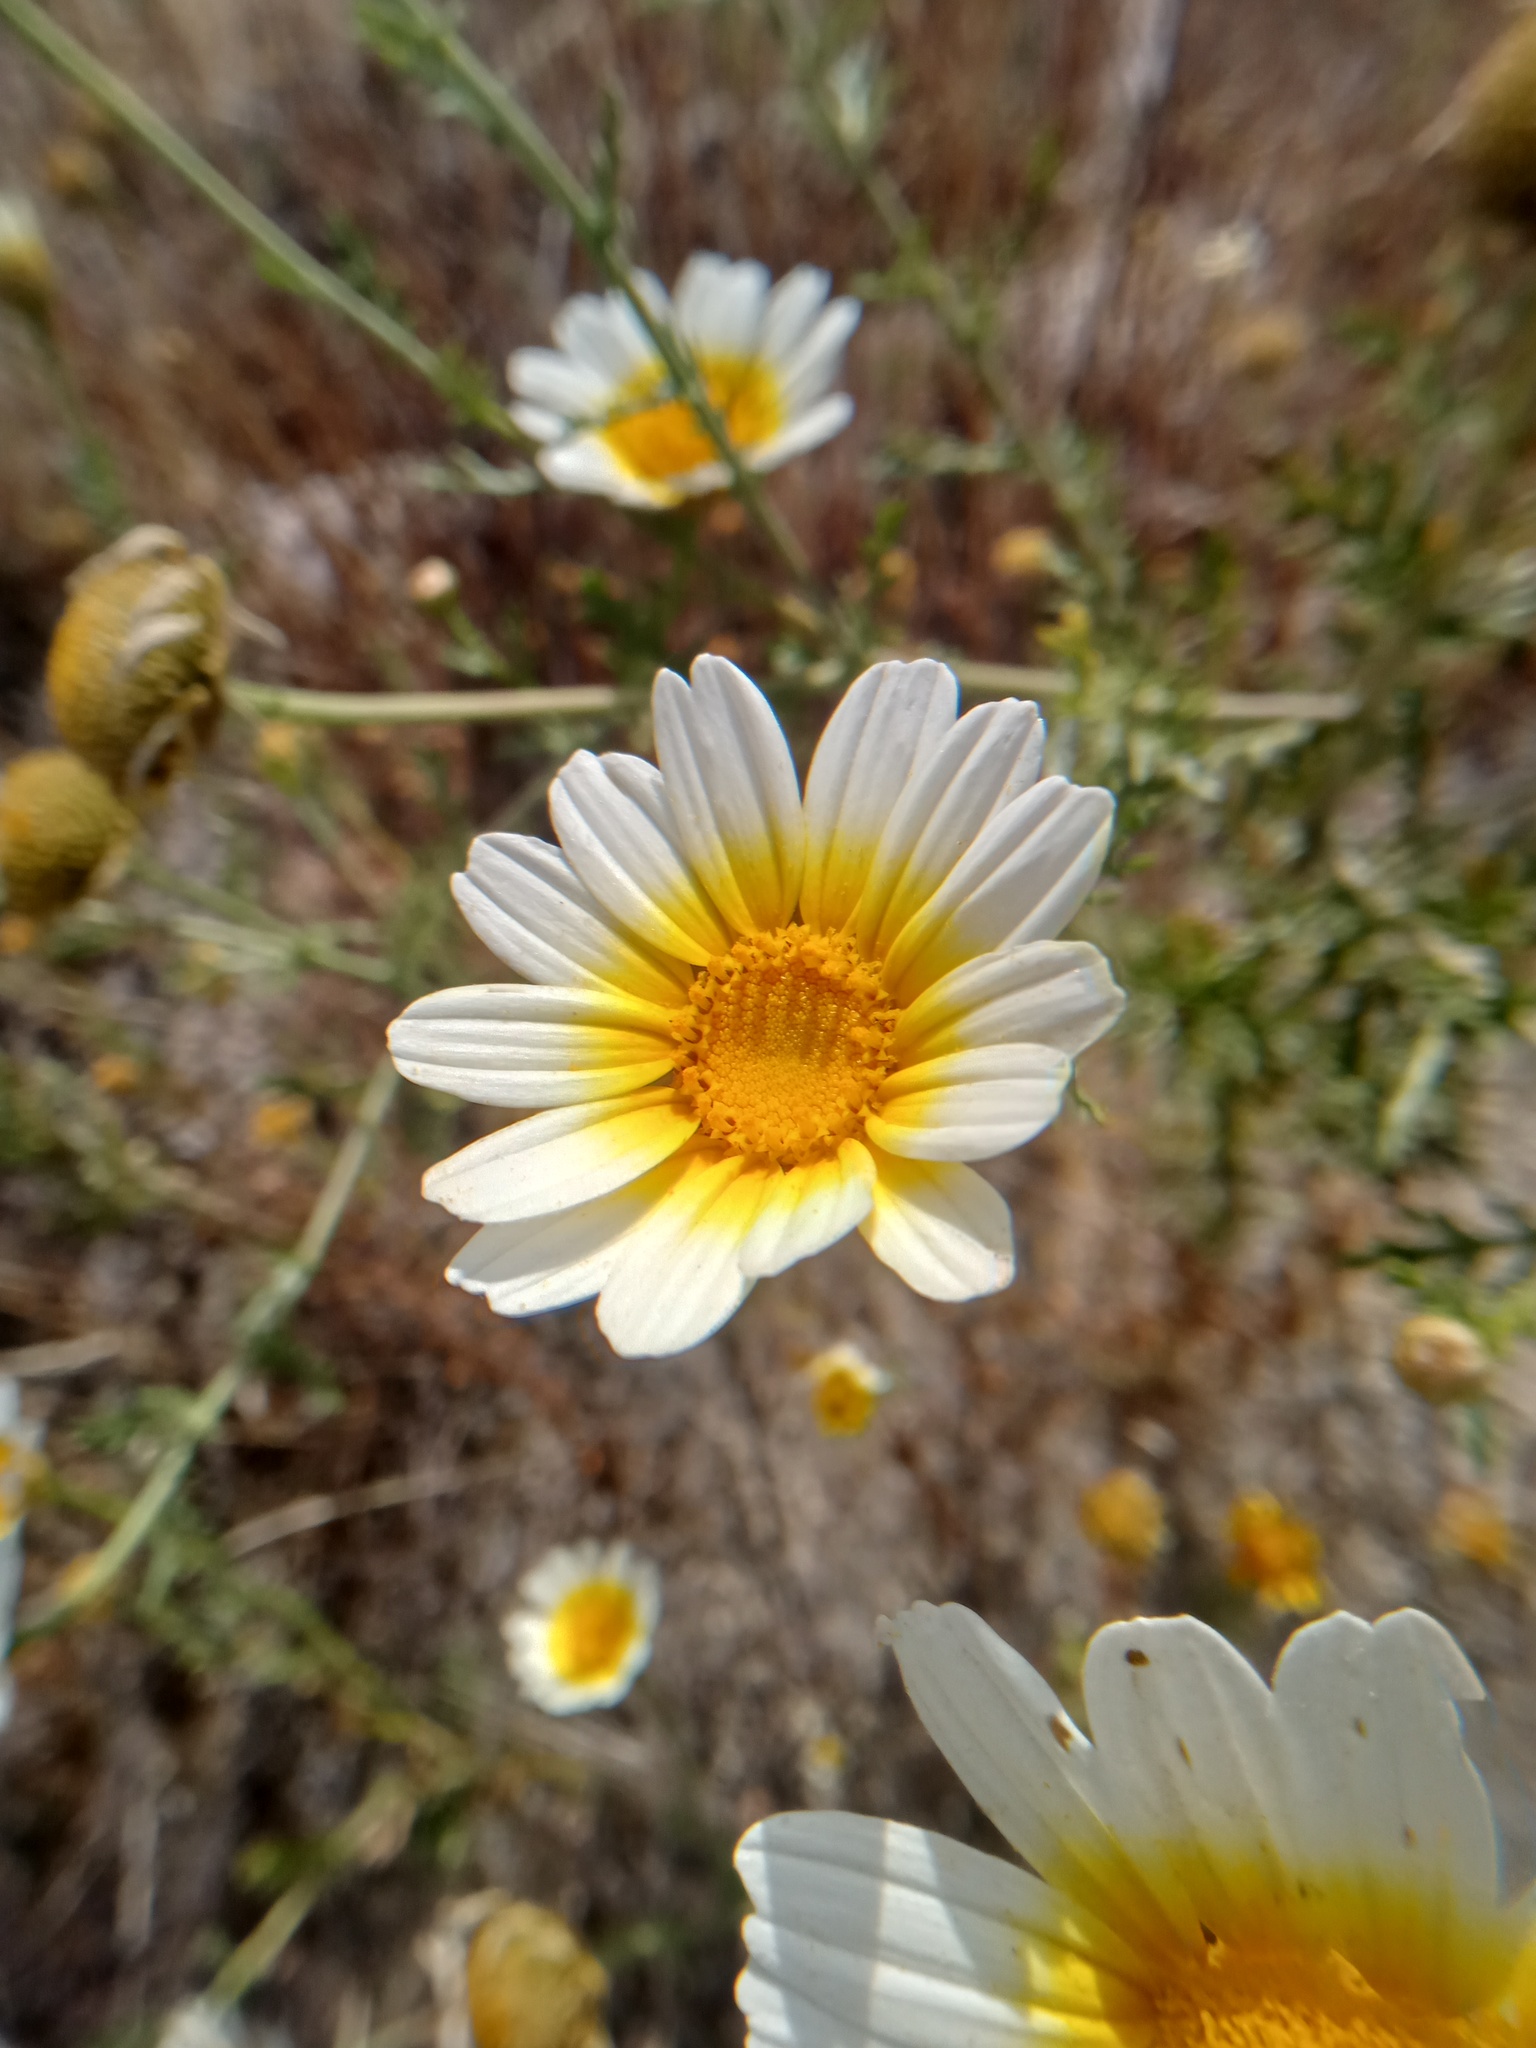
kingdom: Plantae
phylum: Tracheophyta
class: Magnoliopsida
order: Asterales
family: Asteraceae
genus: Glebionis
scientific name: Glebionis coronaria
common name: Crowndaisy
